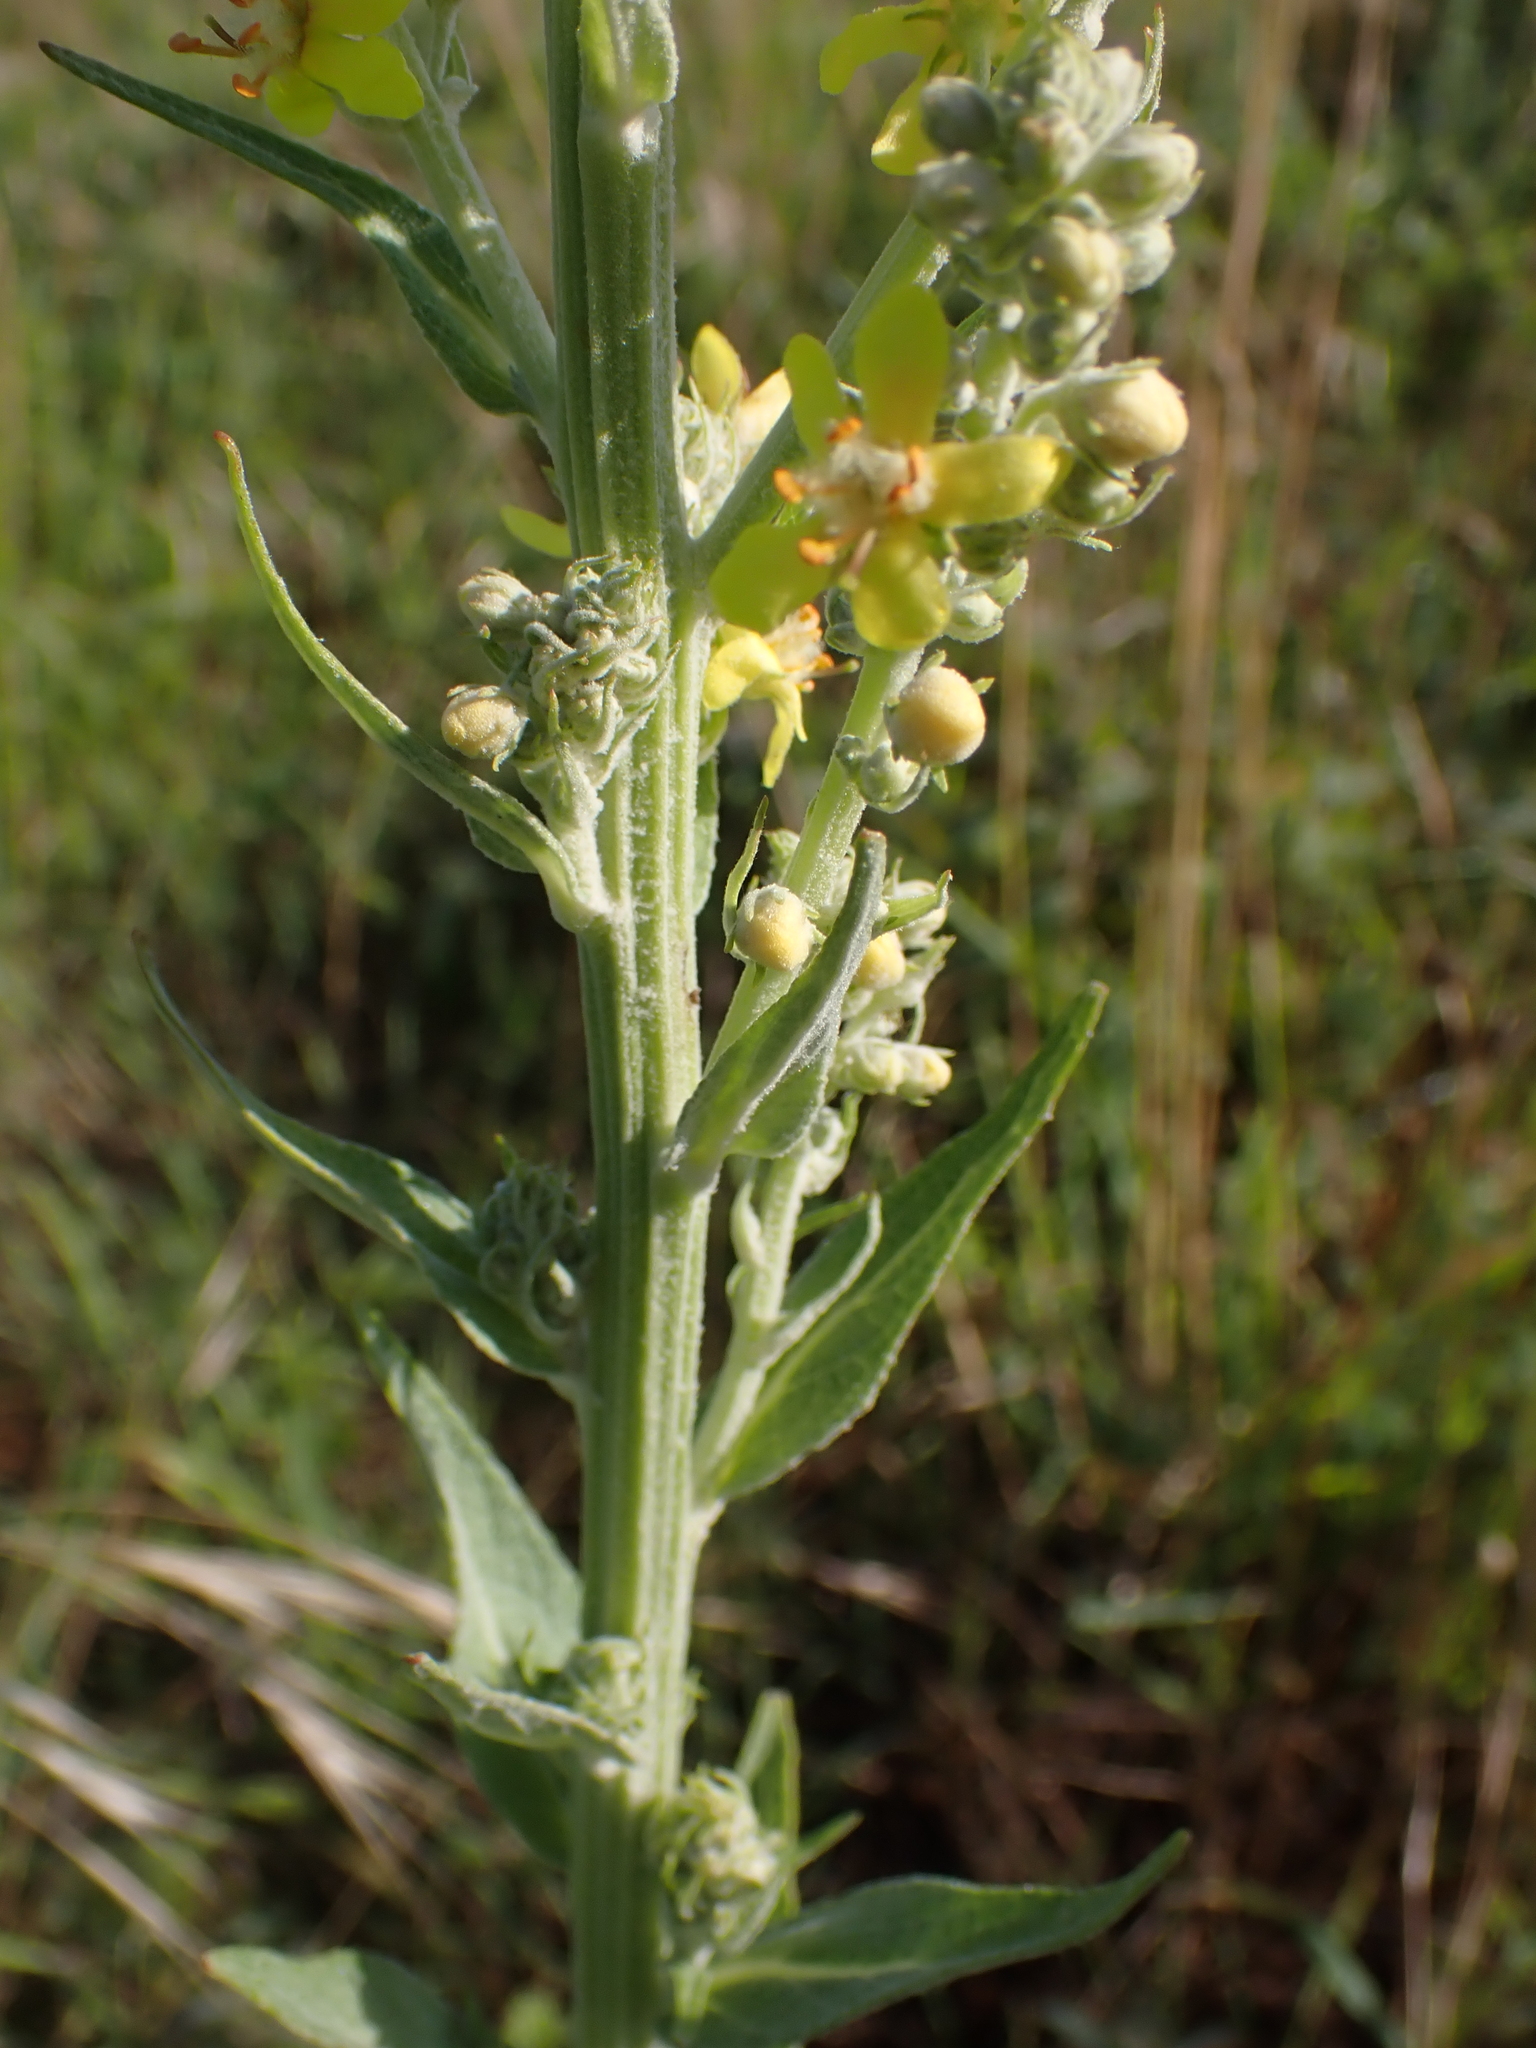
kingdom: Plantae
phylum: Tracheophyta
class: Magnoliopsida
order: Lamiales
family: Scrophulariaceae
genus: Verbascum
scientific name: Verbascum lychnitis
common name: White mullein
